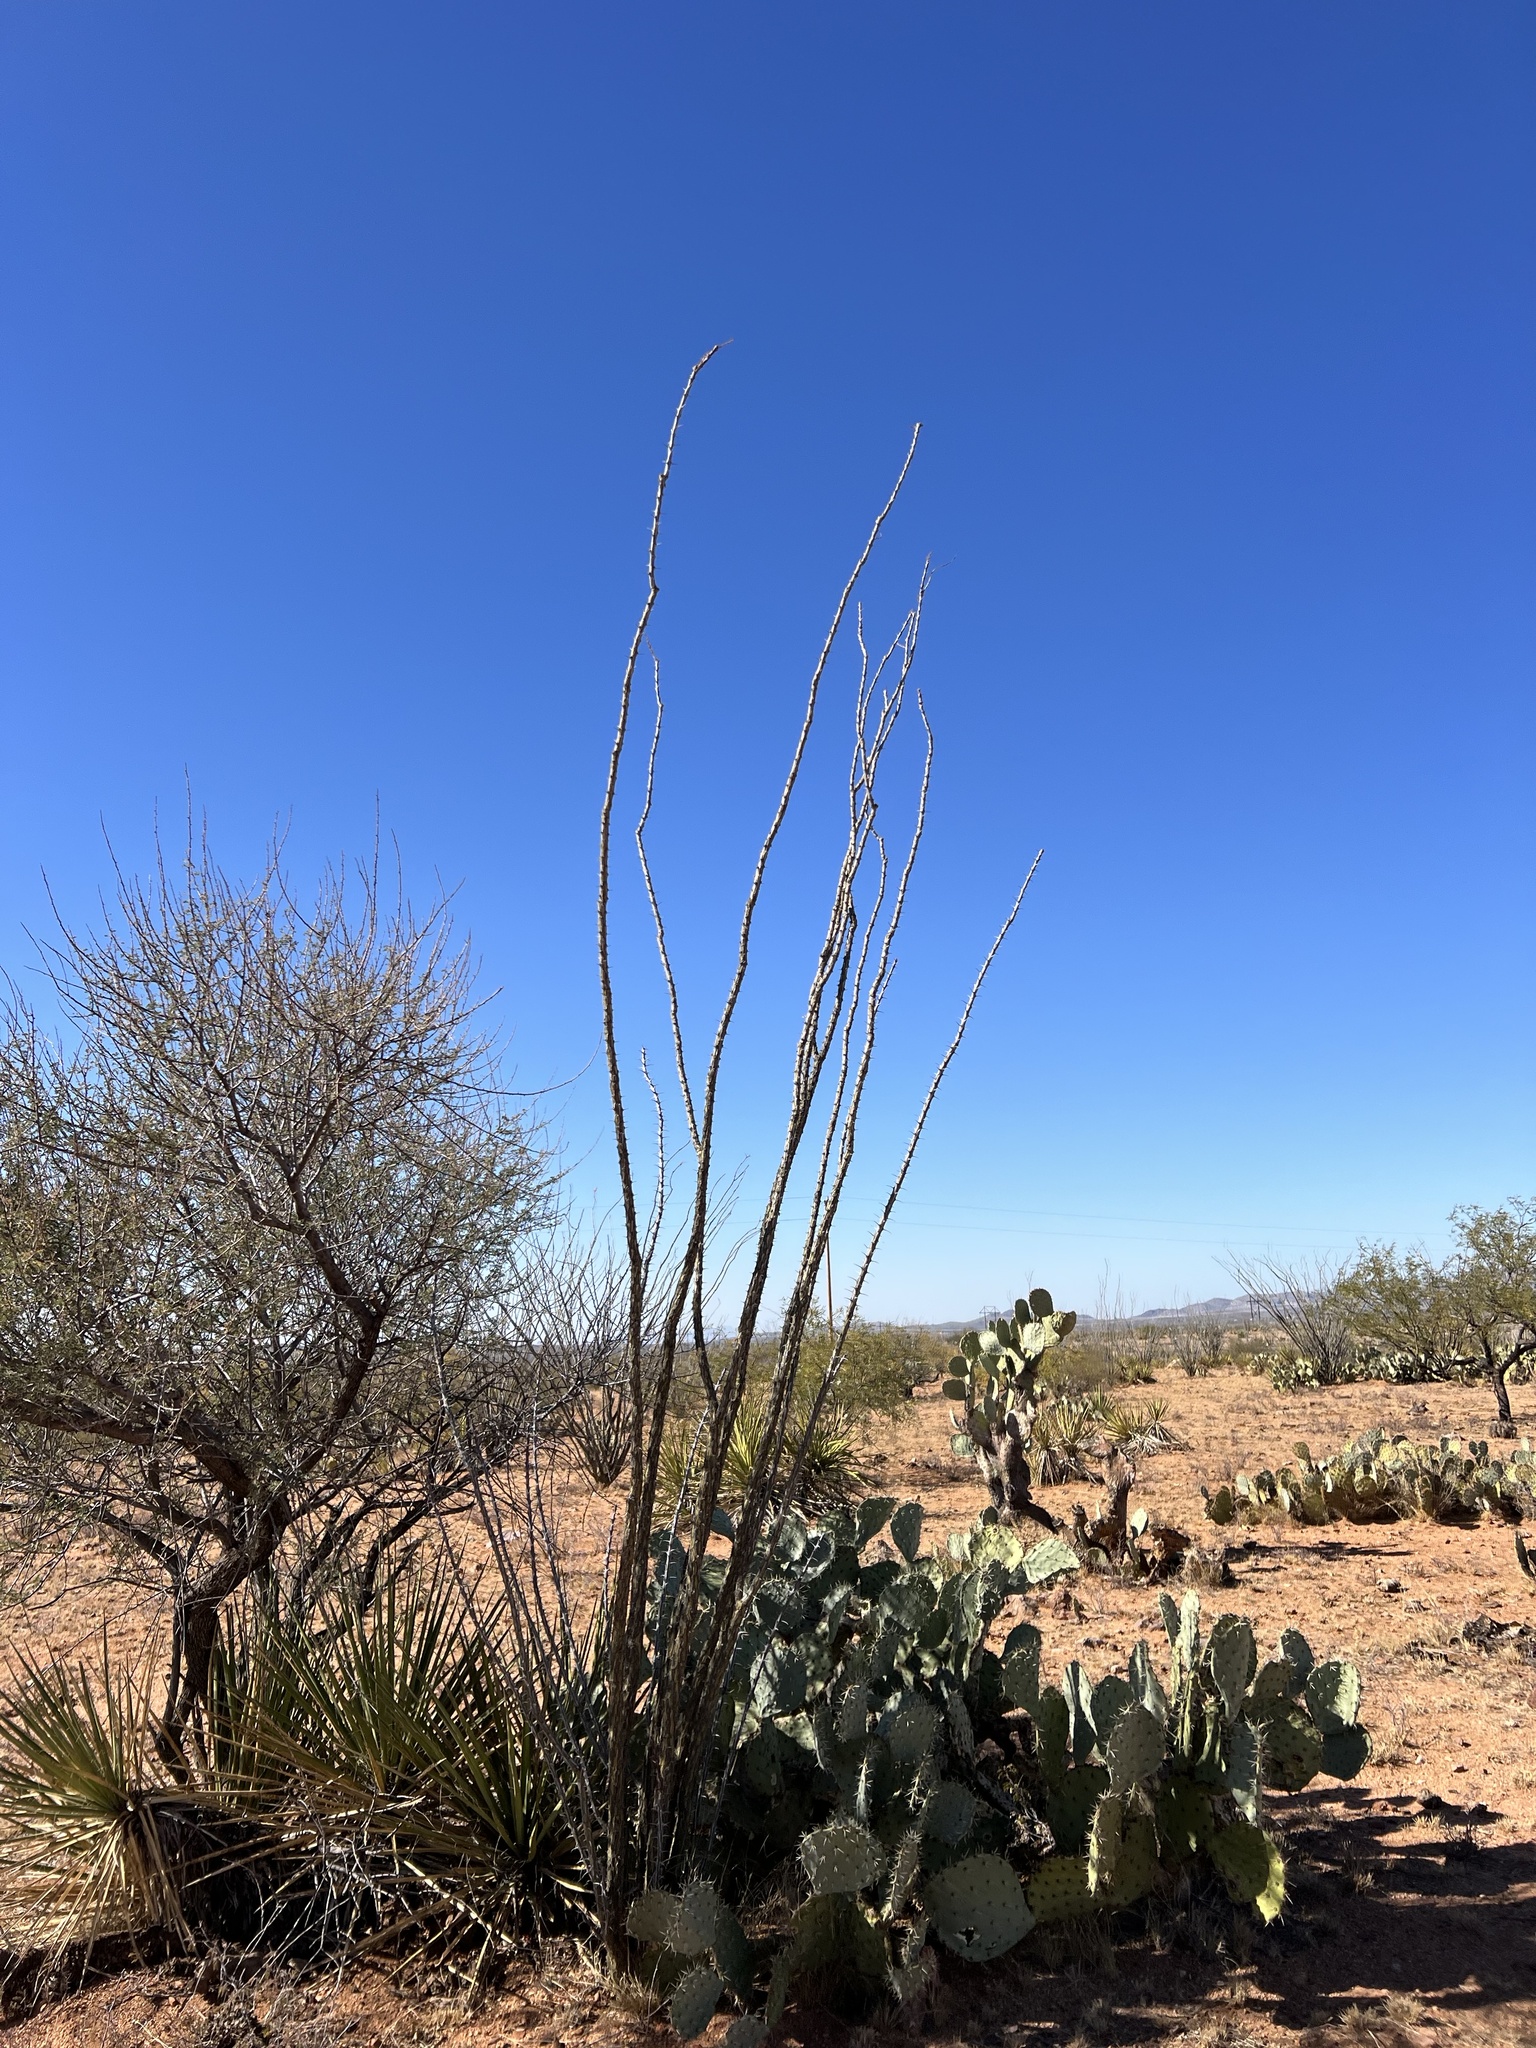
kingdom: Plantae
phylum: Tracheophyta
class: Magnoliopsida
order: Ericales
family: Fouquieriaceae
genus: Fouquieria
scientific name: Fouquieria splendens
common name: Vine-cactus
